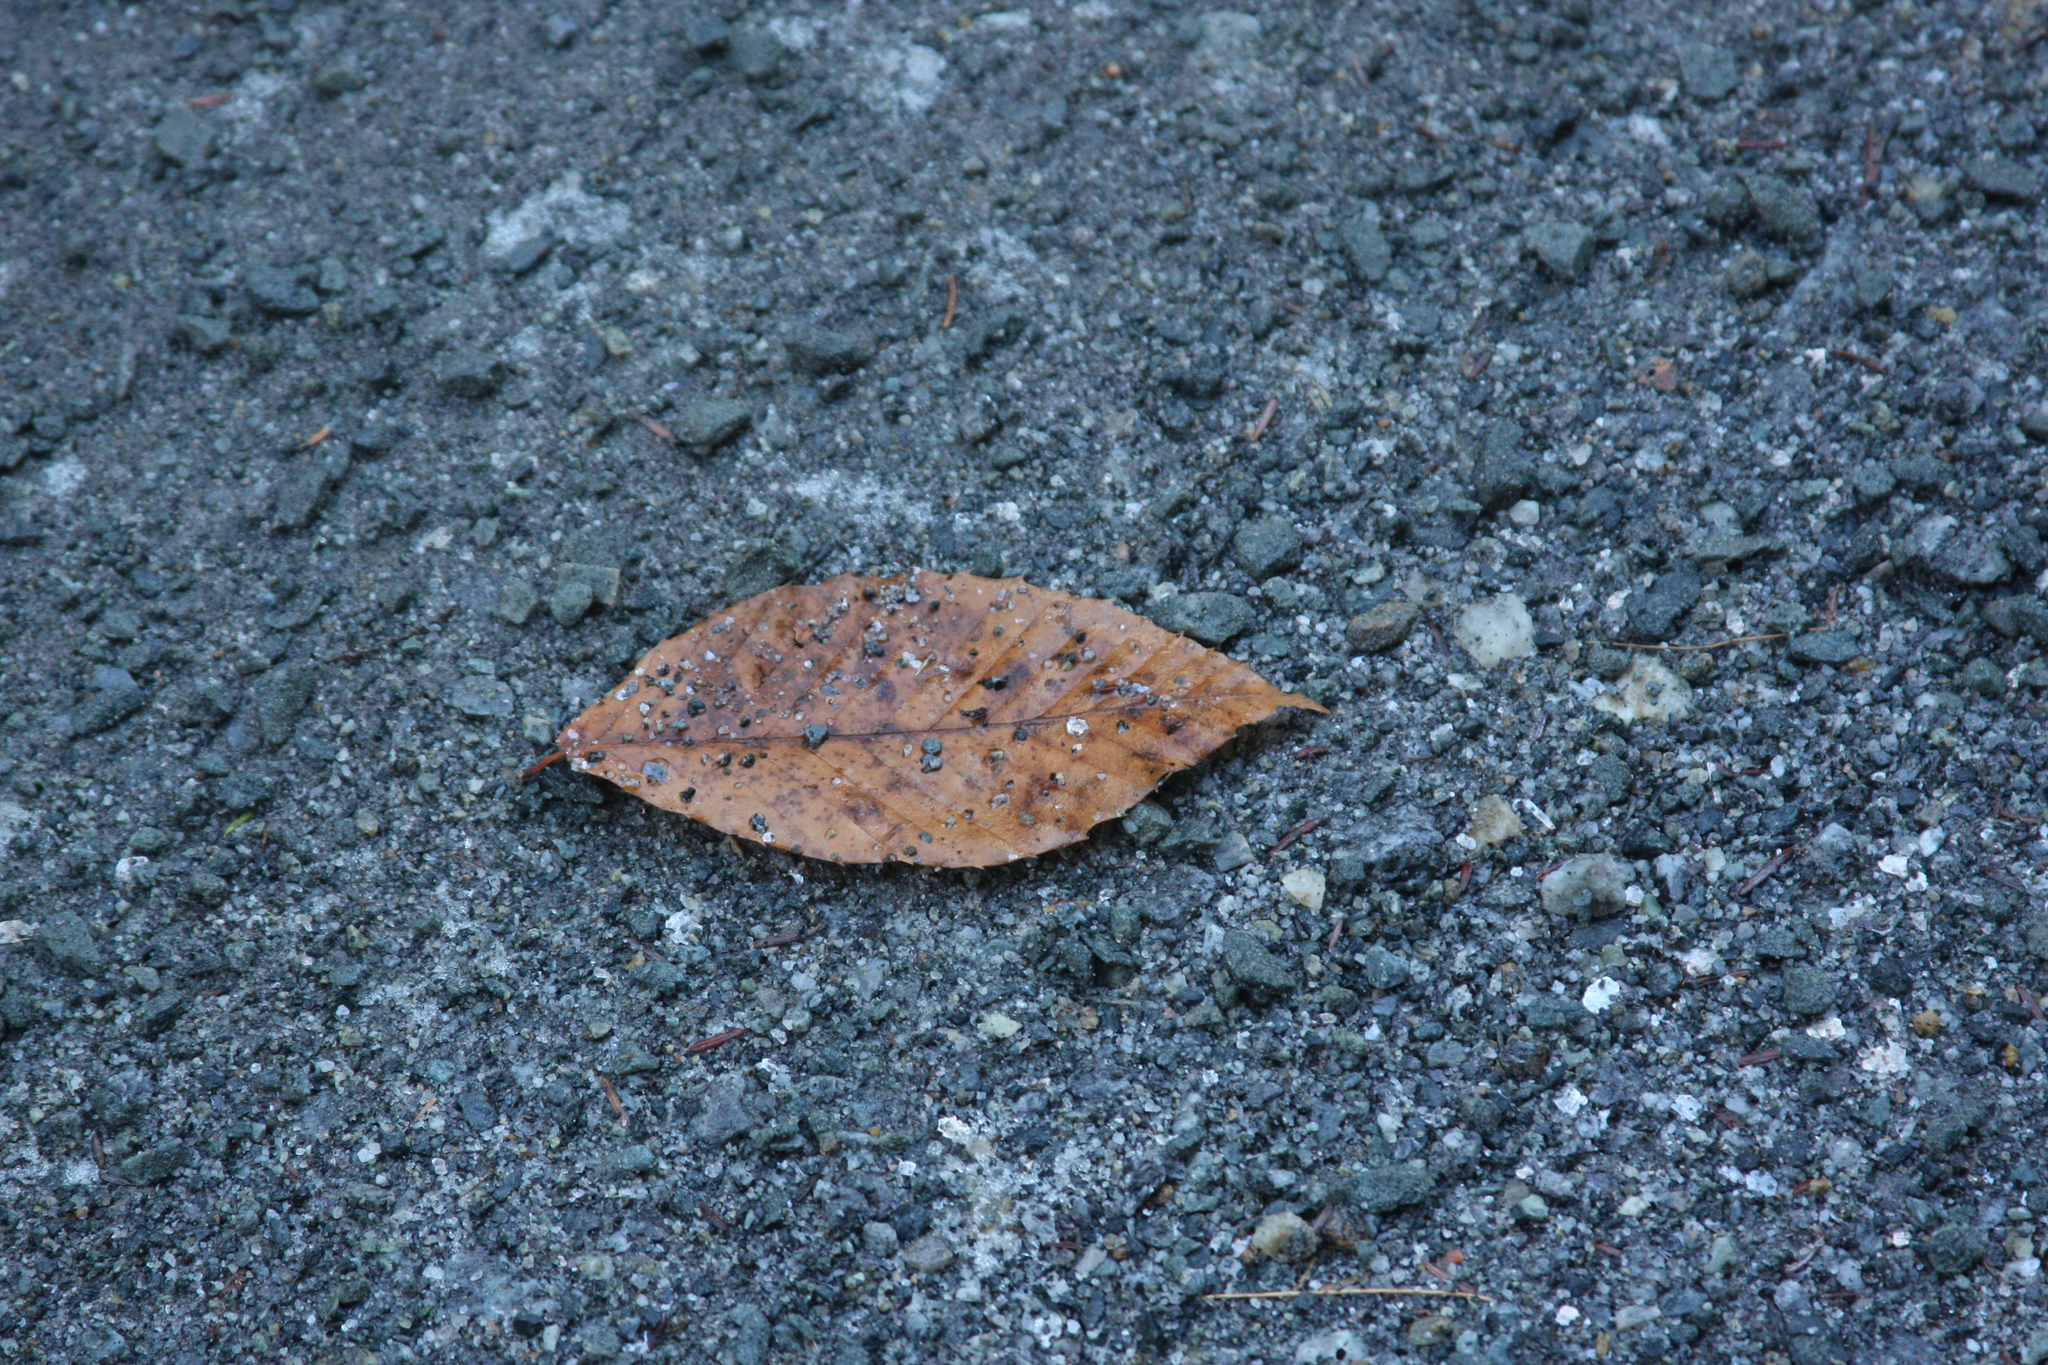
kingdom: Plantae
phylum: Tracheophyta
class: Magnoliopsida
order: Fagales
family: Fagaceae
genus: Fagus
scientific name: Fagus grandifolia
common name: American beech
